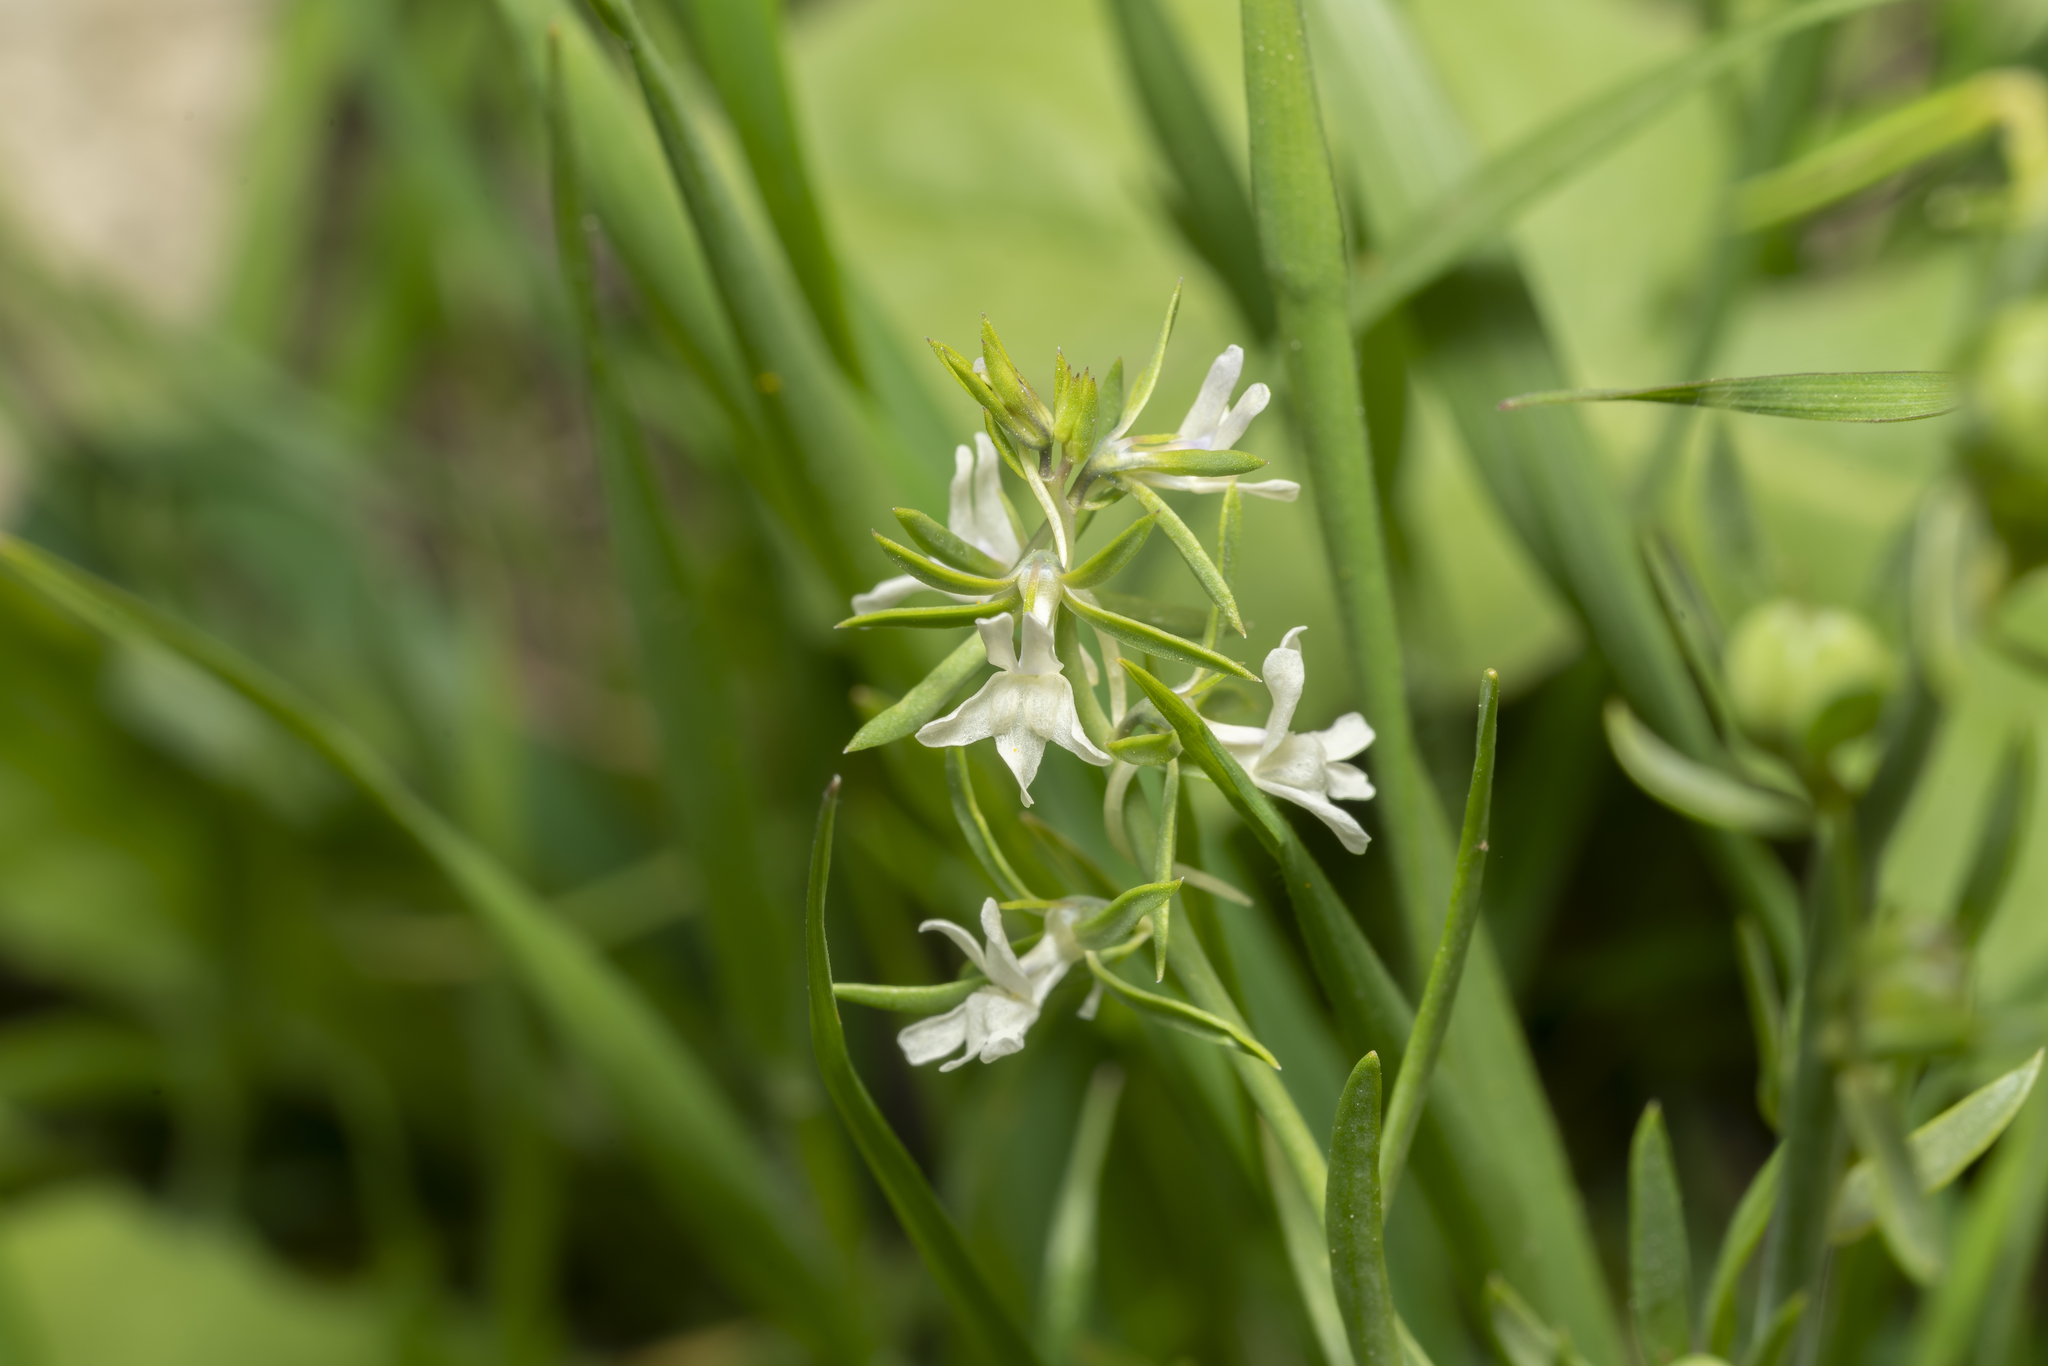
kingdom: Plantae
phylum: Tracheophyta
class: Magnoliopsida
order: Lamiales
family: Plantaginaceae
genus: Linaria
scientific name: Linaria chalepensis
